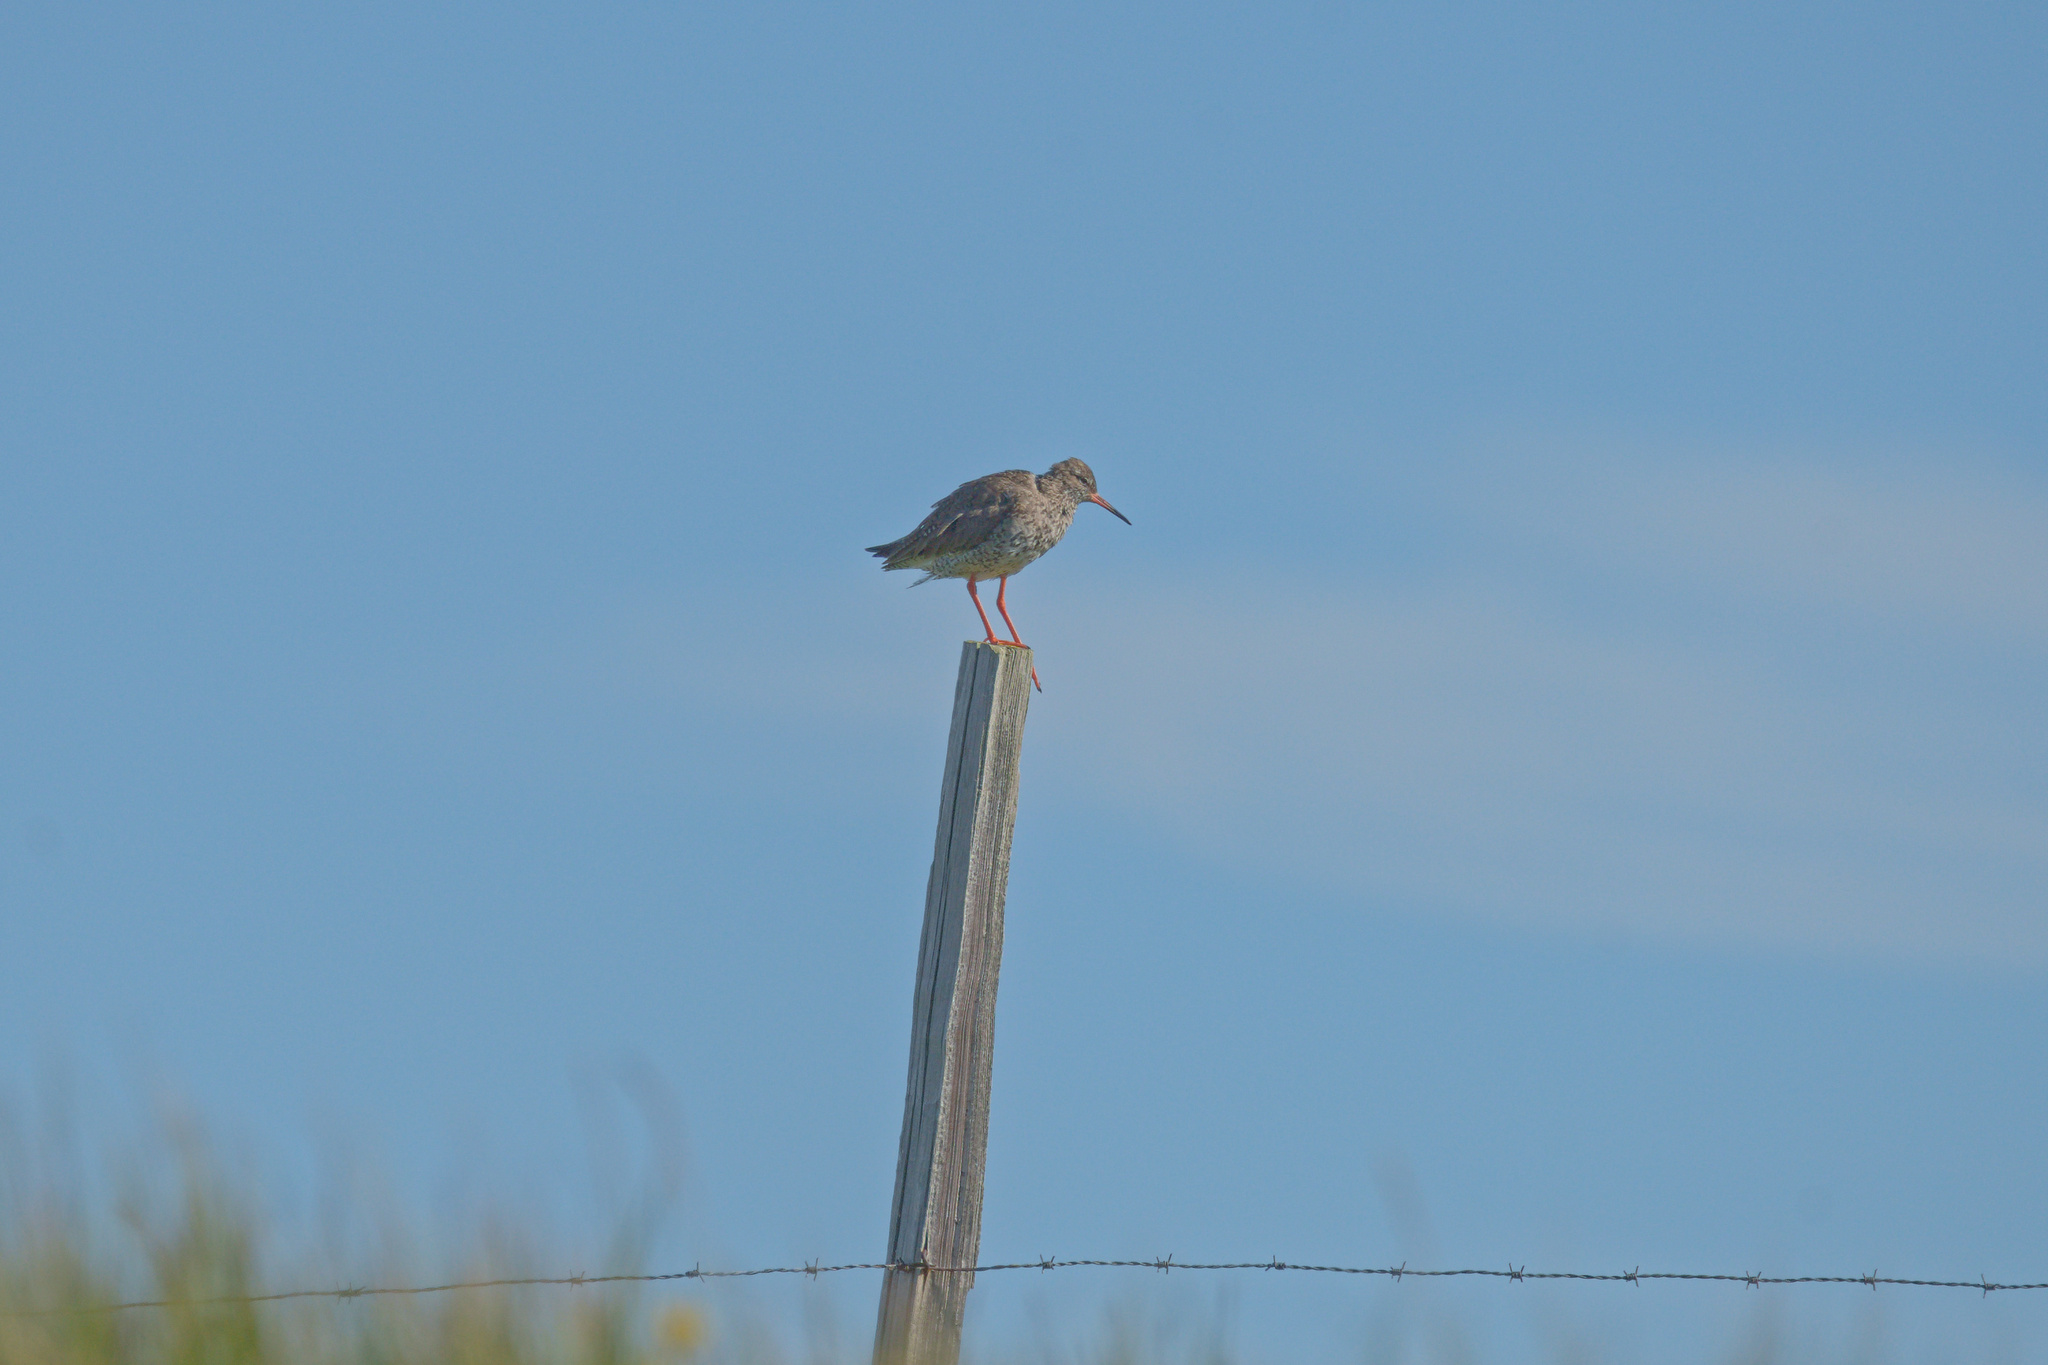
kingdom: Animalia
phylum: Chordata
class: Aves
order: Charadriiformes
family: Scolopacidae
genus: Tringa
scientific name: Tringa totanus
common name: Common redshank
